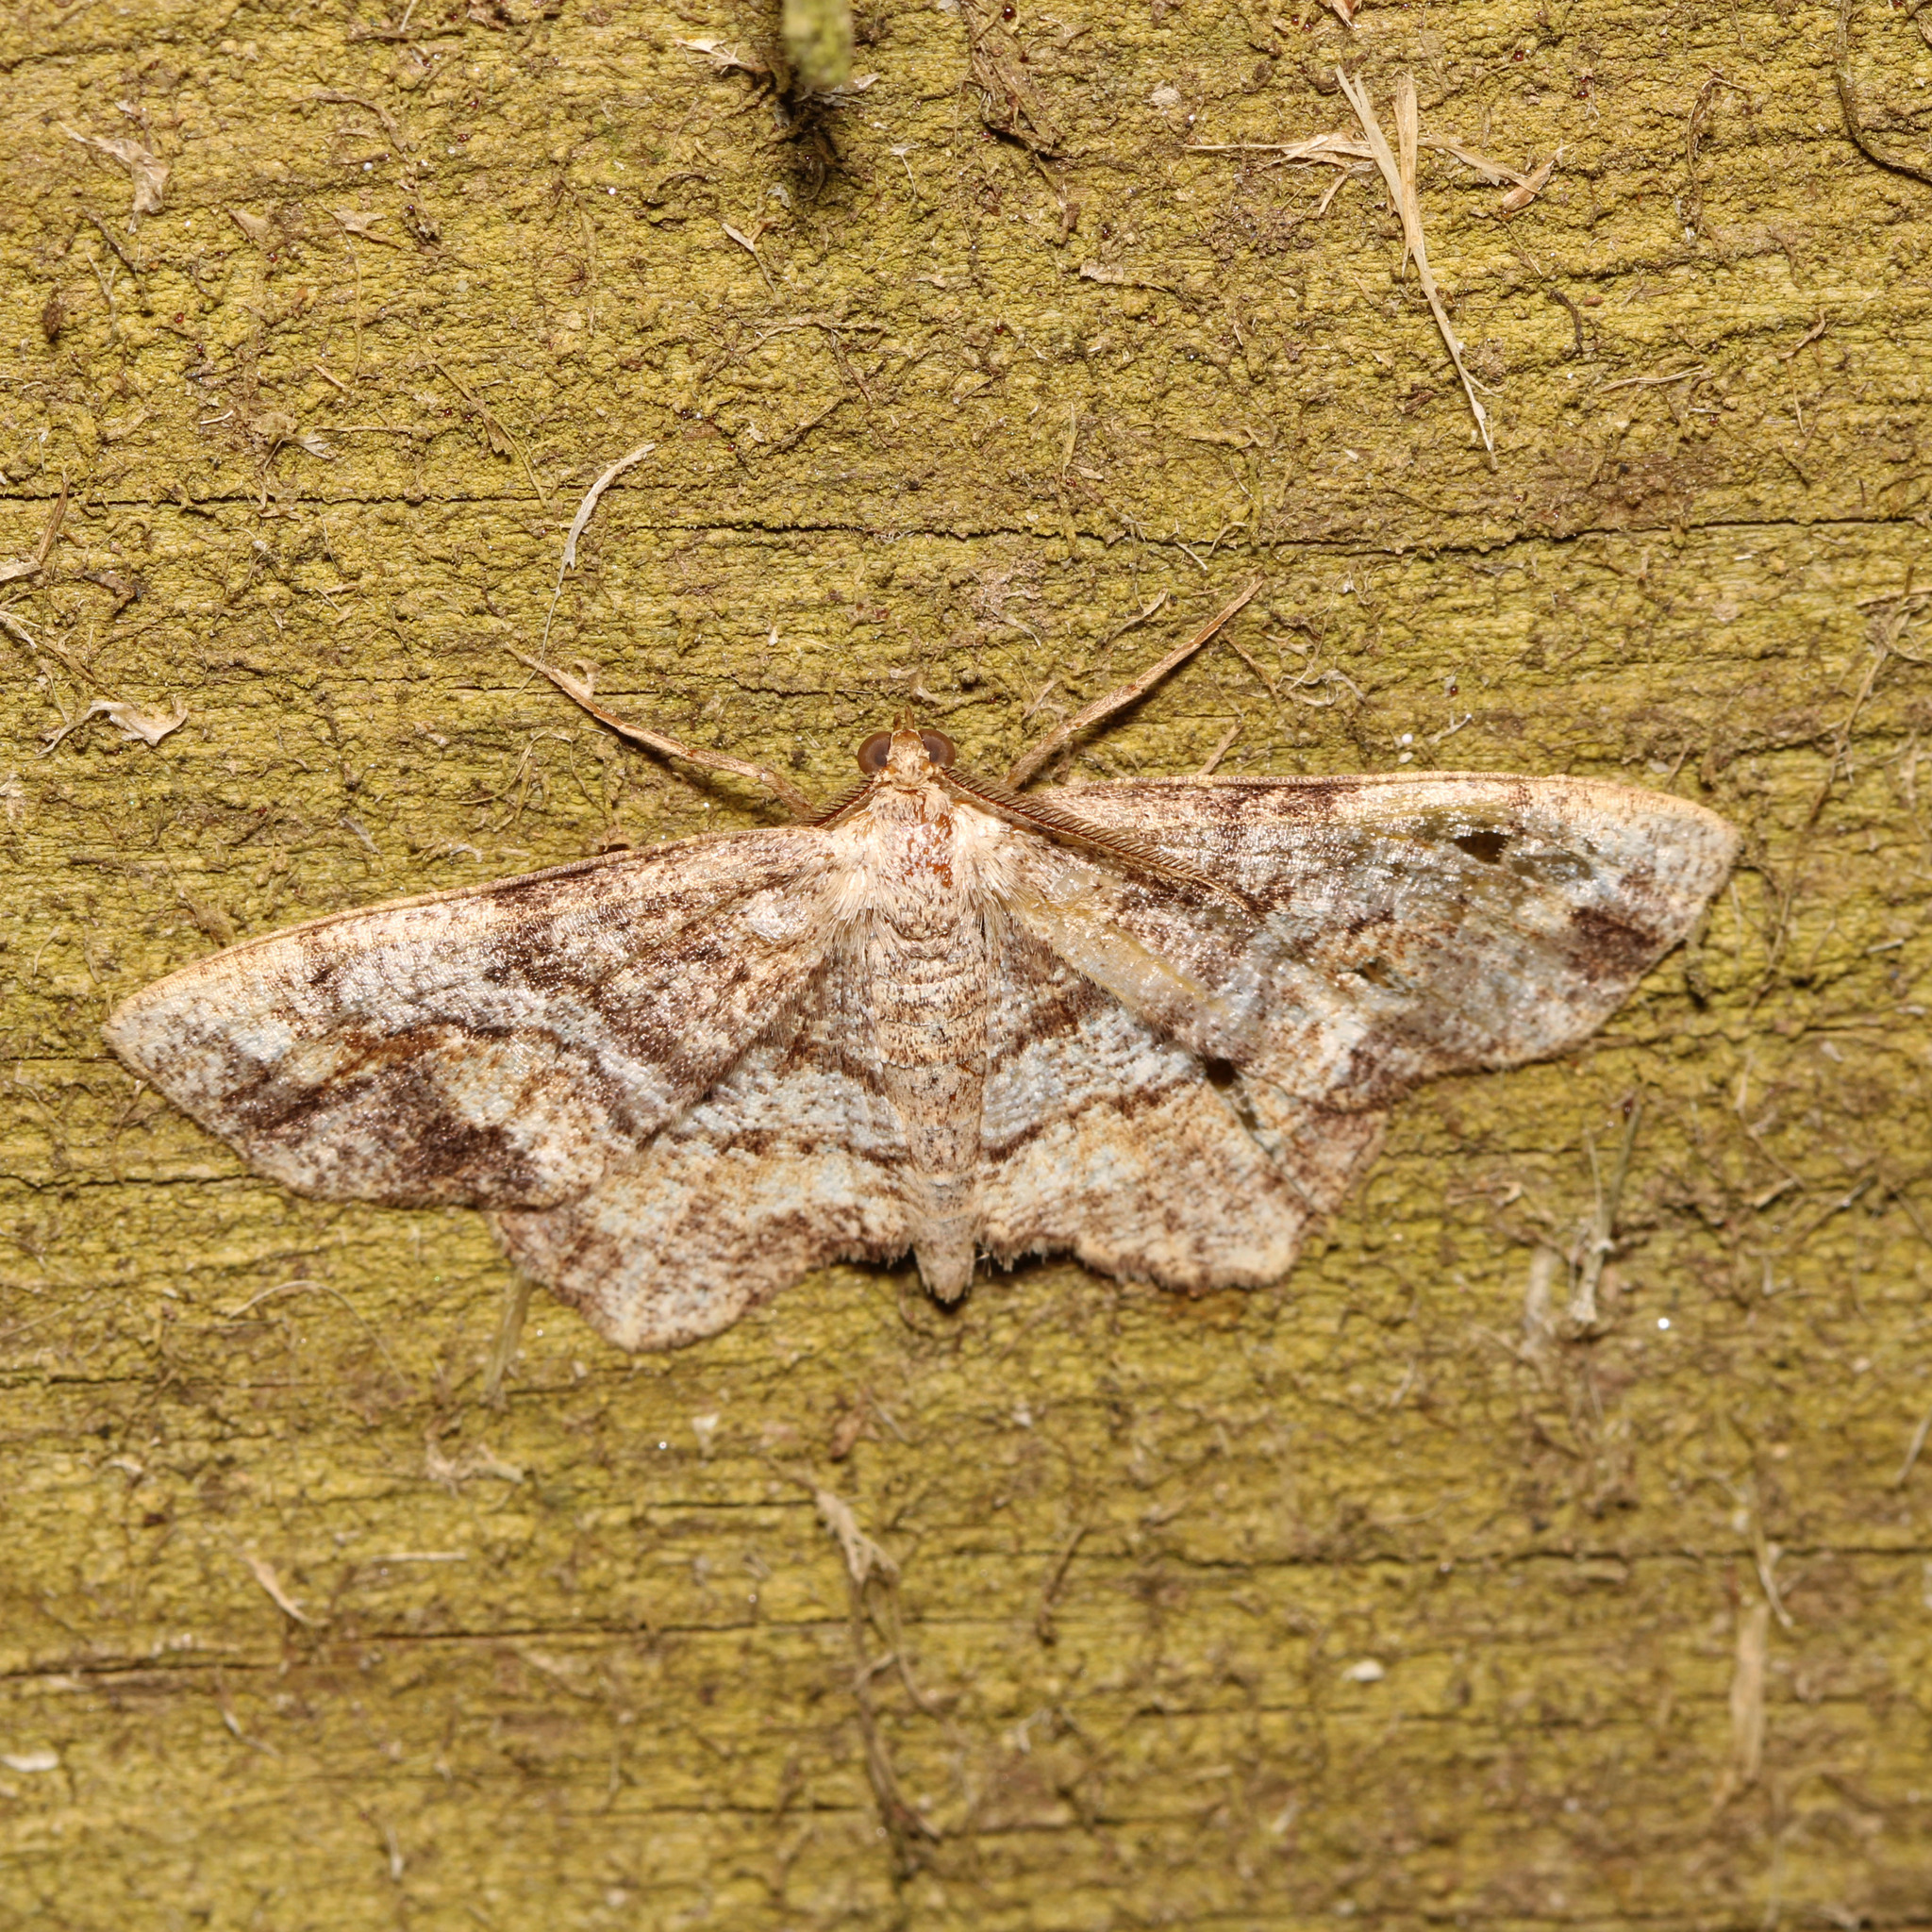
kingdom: Animalia
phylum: Arthropoda
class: Insecta
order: Lepidoptera
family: Geometridae
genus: Hypagyrtis
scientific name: Hypagyrtis unipunctata
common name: One-spotted variant
